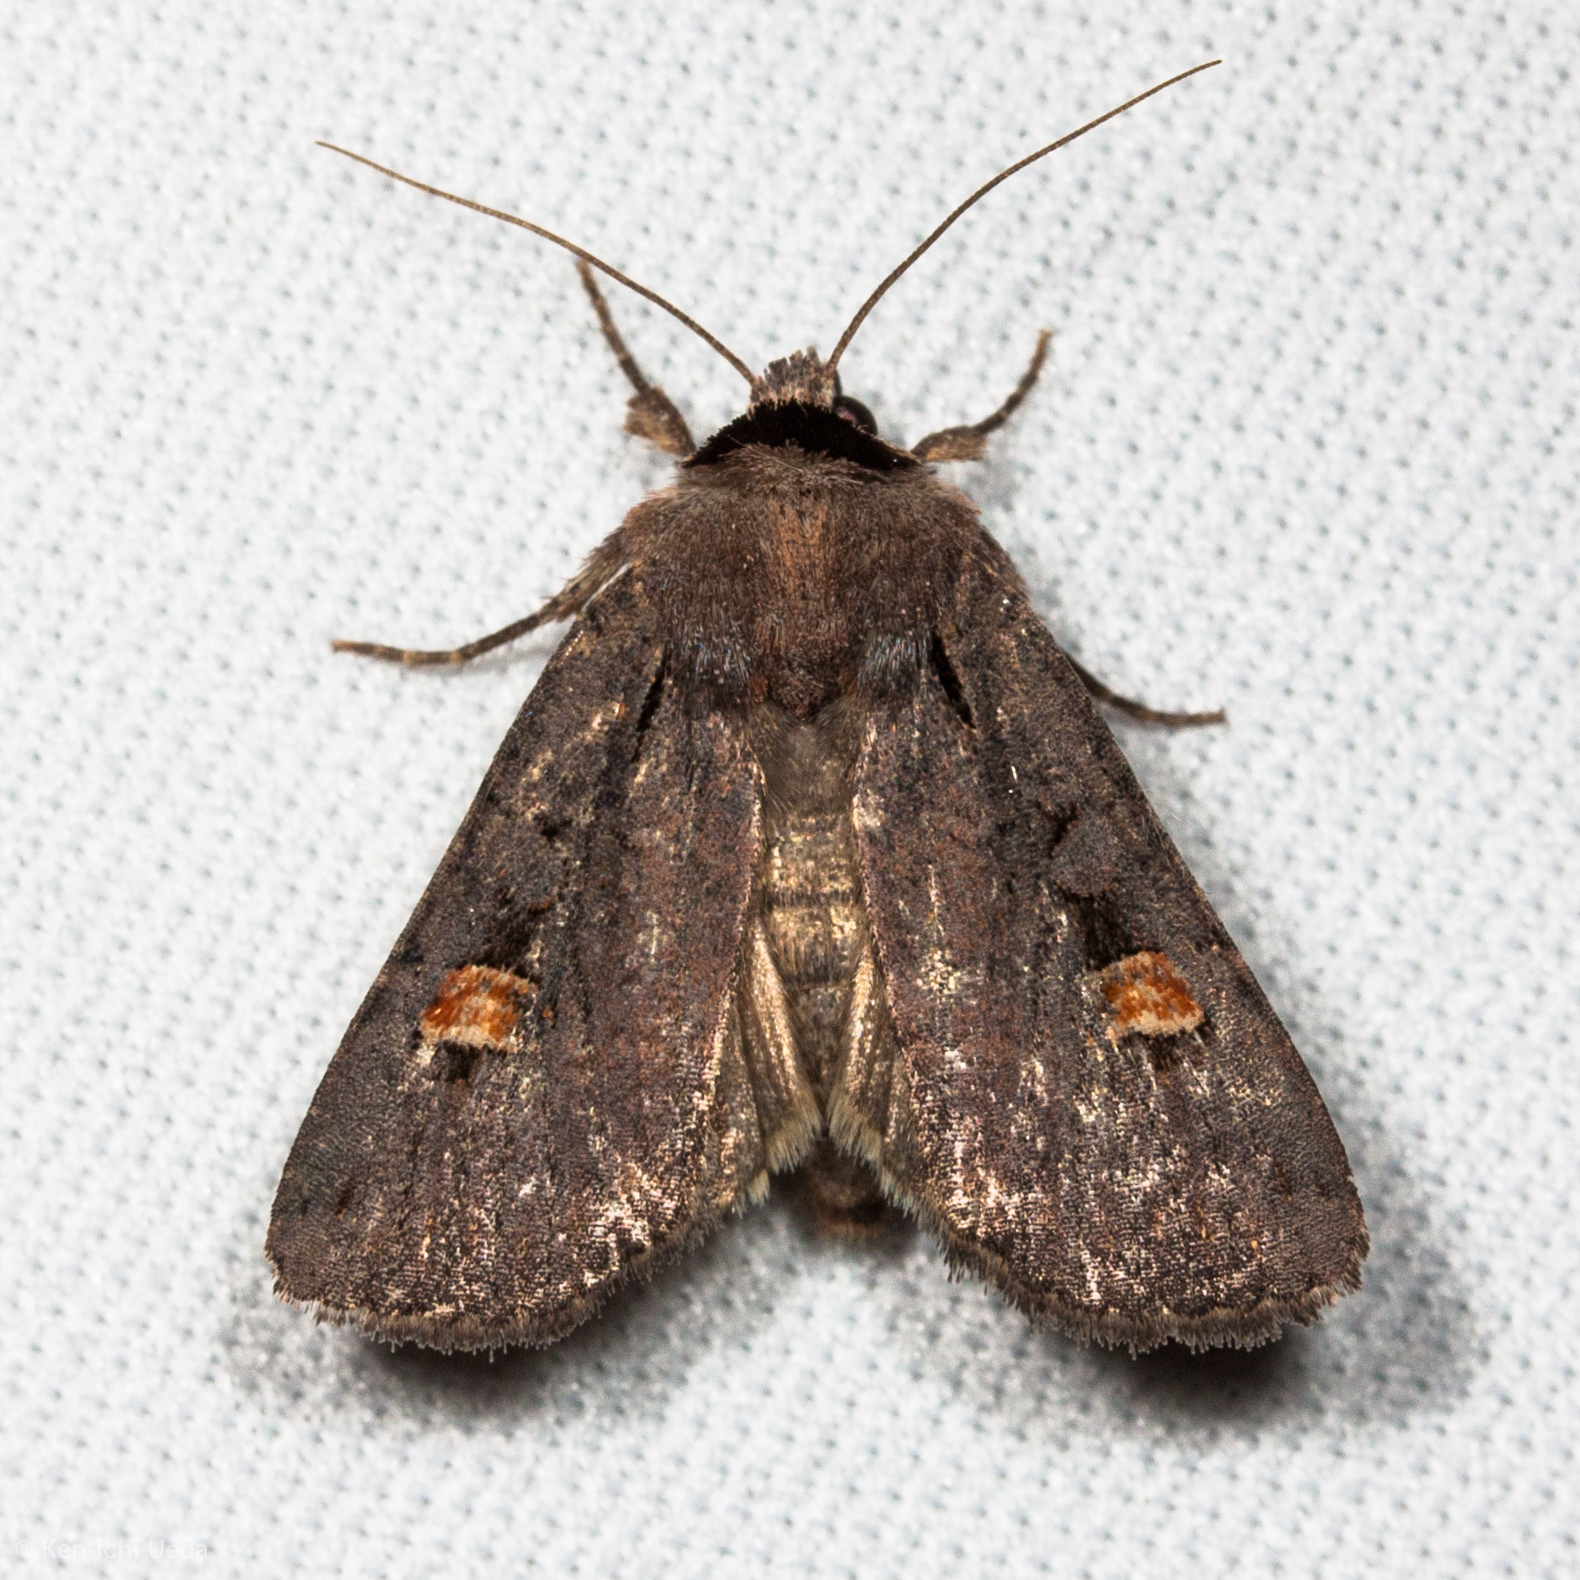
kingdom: Animalia
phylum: Arthropoda
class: Insecta
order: Lepidoptera
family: Noctuidae
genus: Adelphagrotis
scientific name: Adelphagrotis indeterminata
